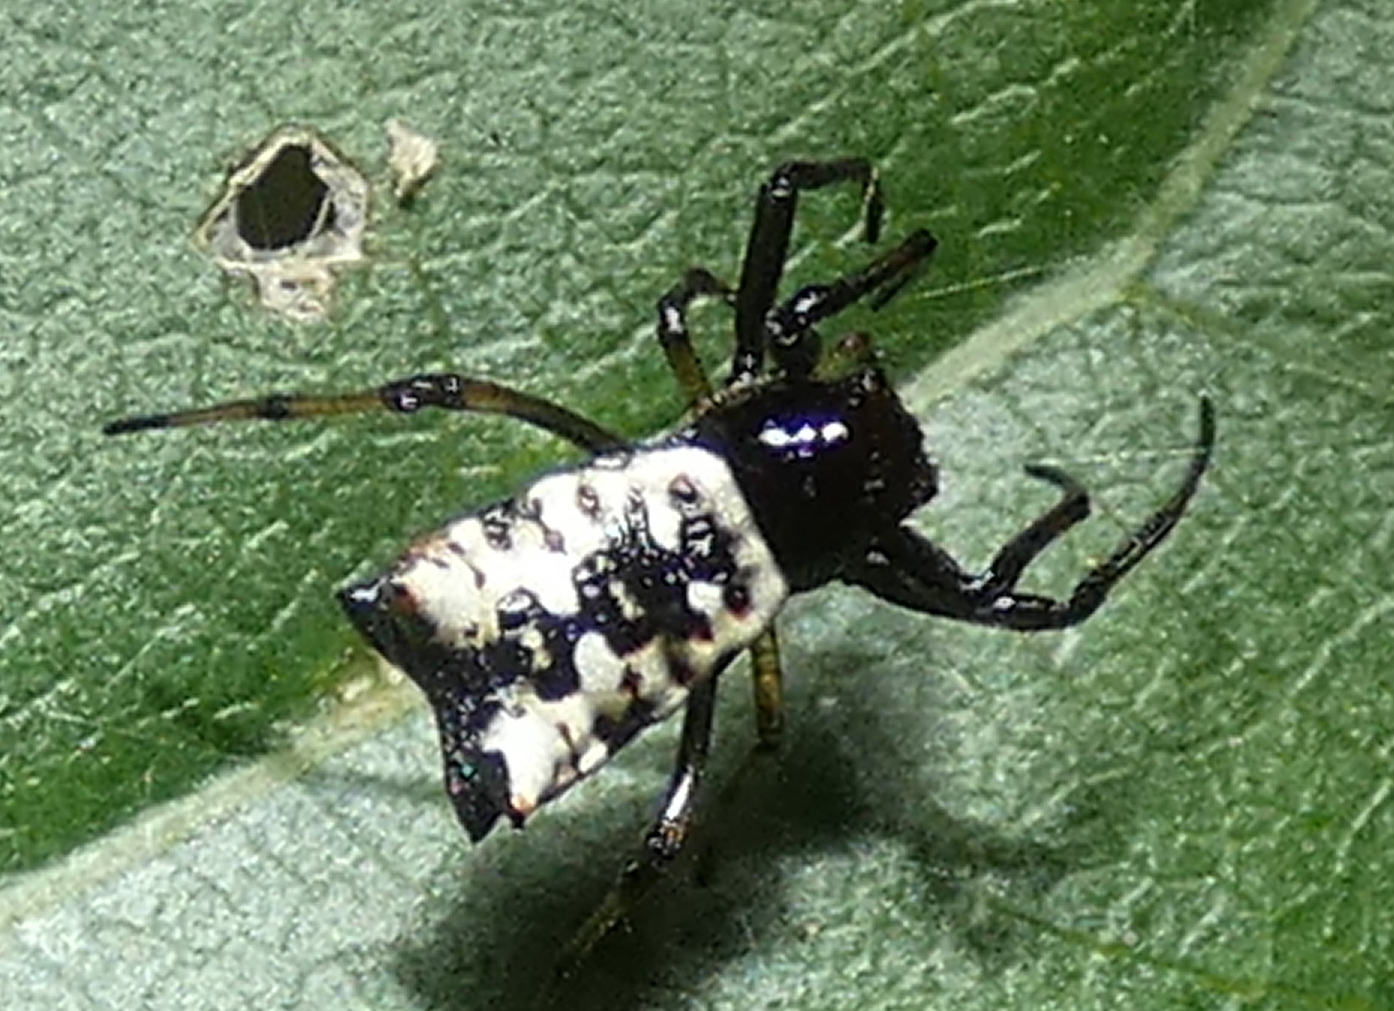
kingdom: Animalia
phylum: Arthropoda
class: Arachnida
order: Araneae
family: Araneidae
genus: Micrathena
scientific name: Micrathena patruelis
